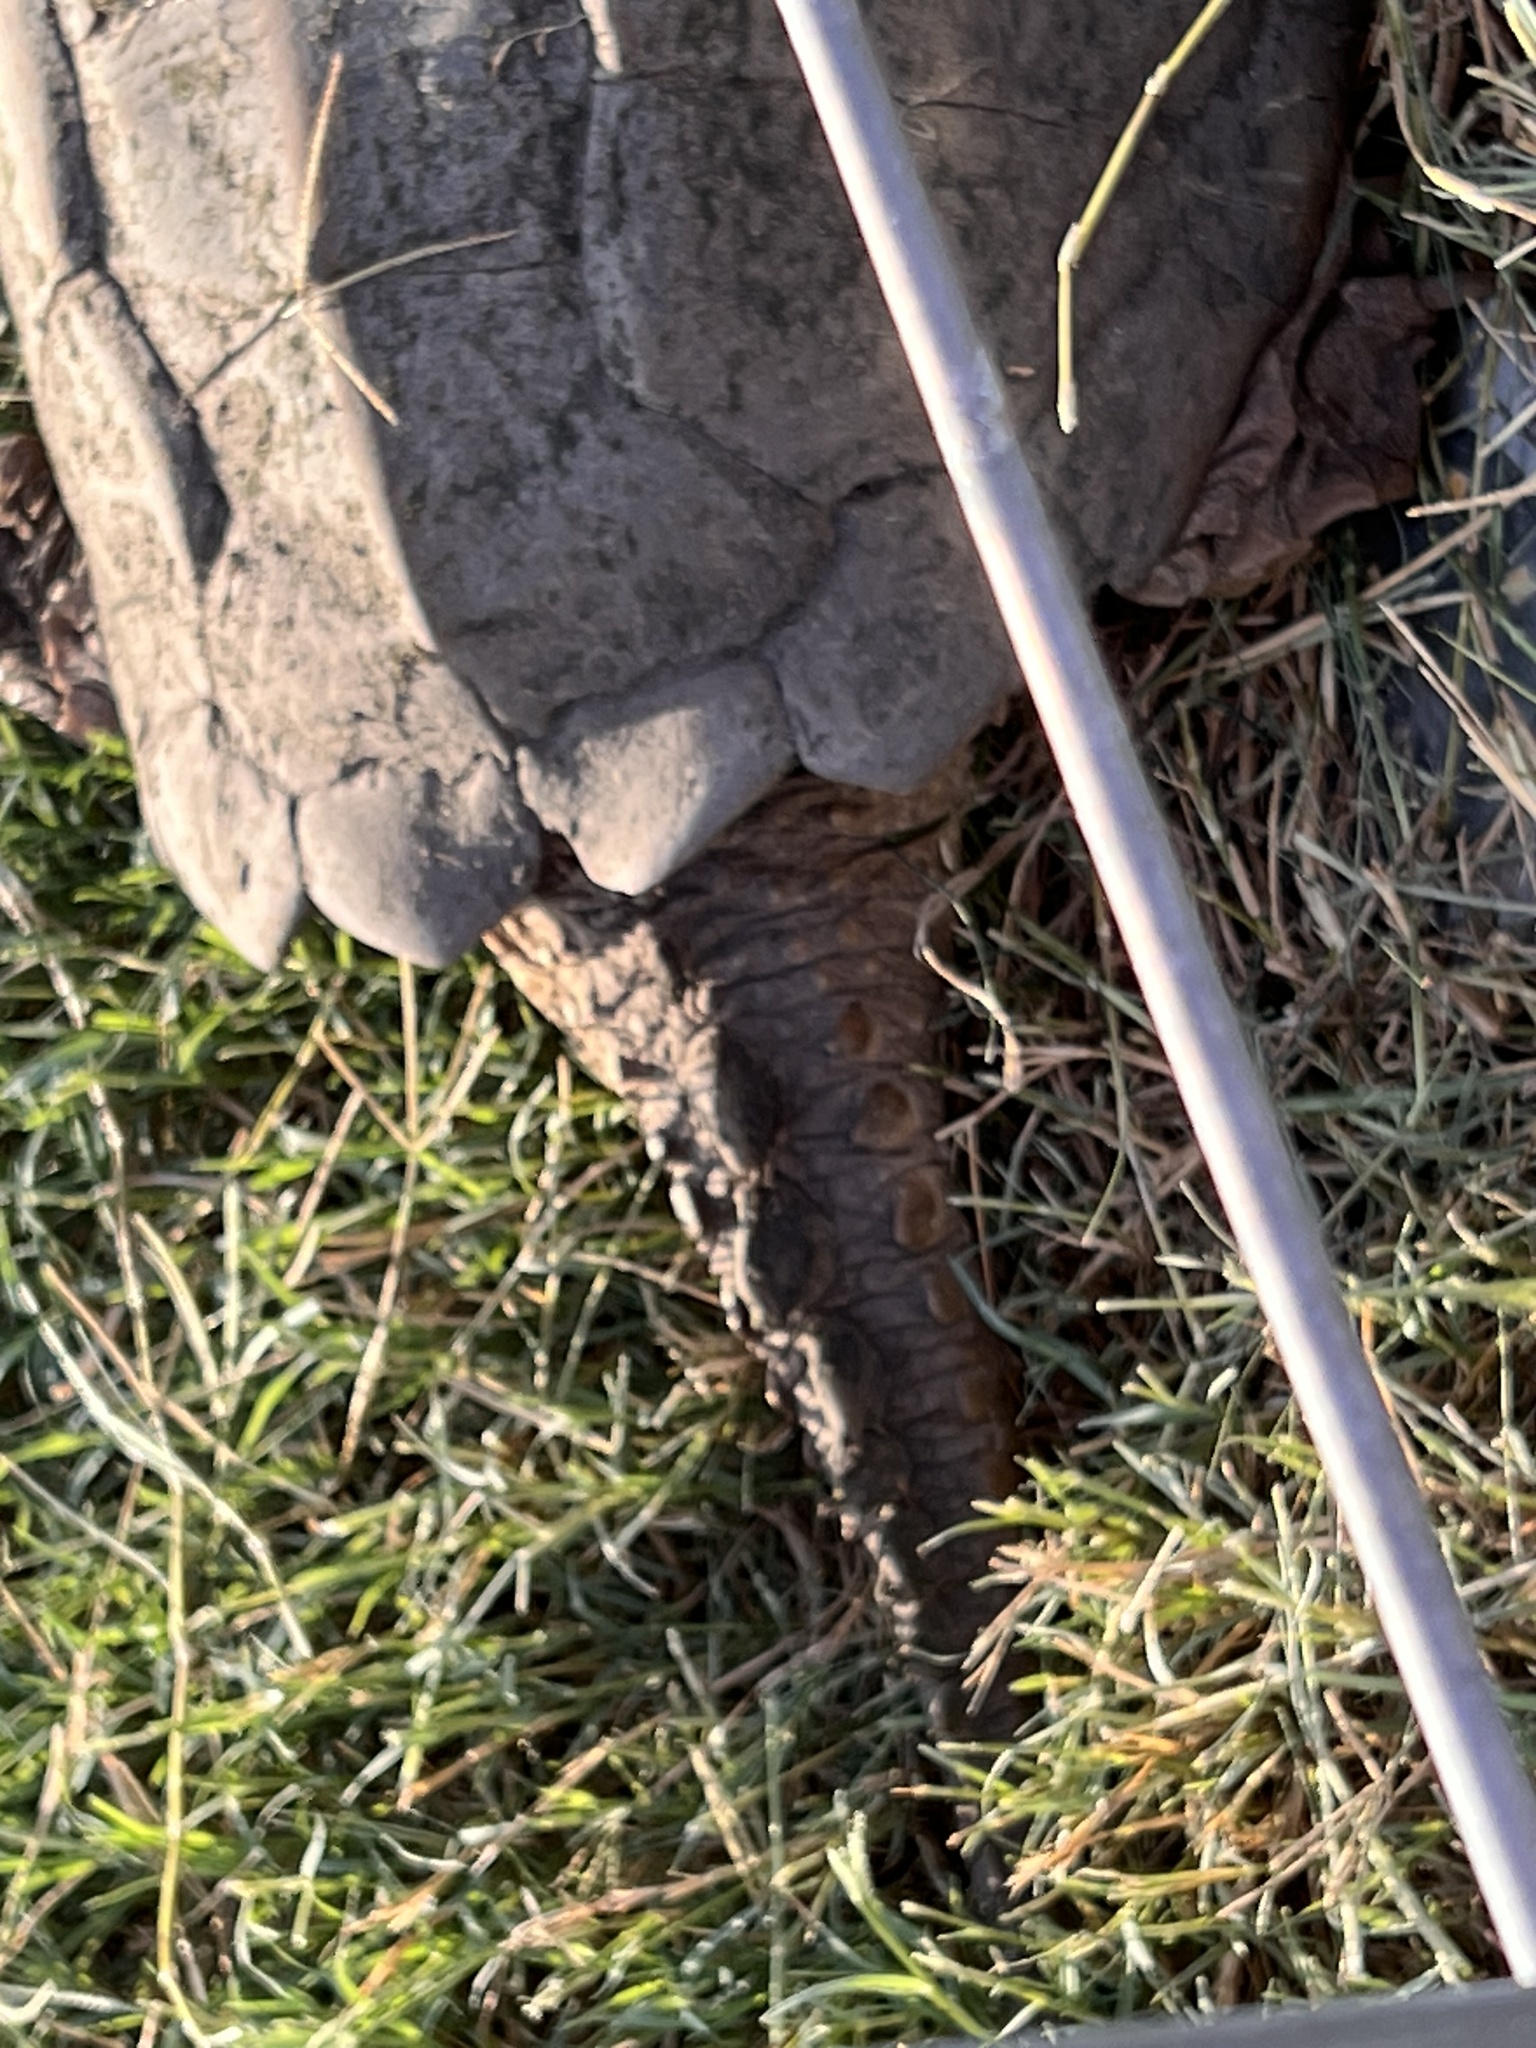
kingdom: Animalia
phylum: Chordata
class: Testudines
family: Chelydridae
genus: Chelydra
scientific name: Chelydra serpentina
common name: Common snapping turtle
